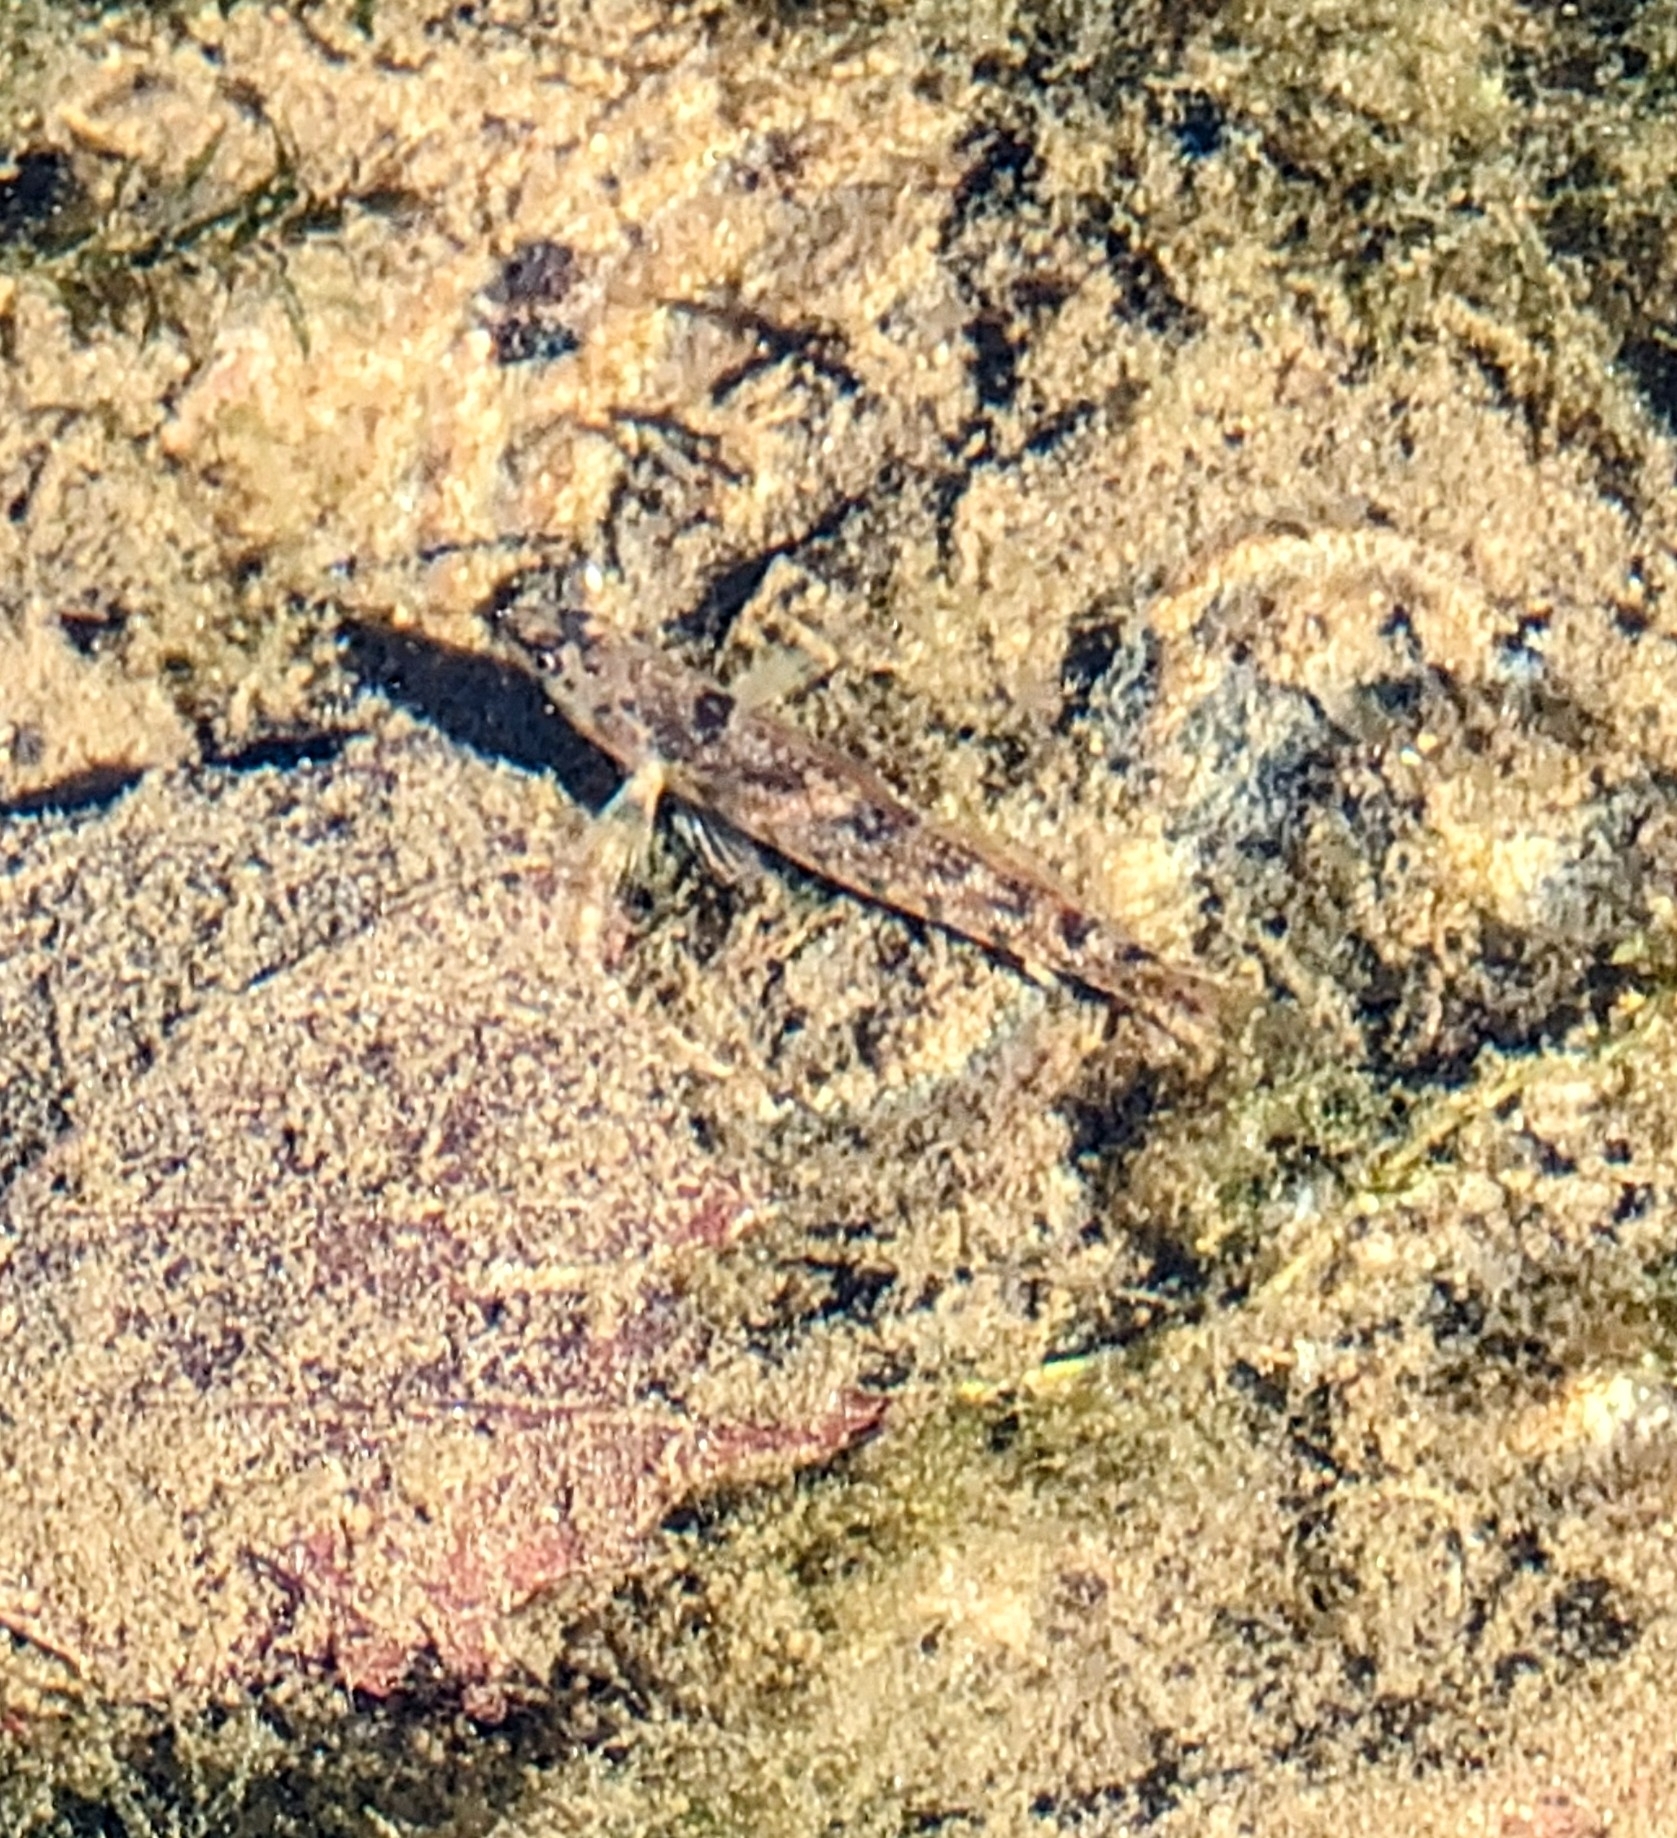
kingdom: Animalia
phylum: Chordata
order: Perciformes
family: Percidae
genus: Etheostoma
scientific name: Etheostoma spectabile
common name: Orangethroat darter
